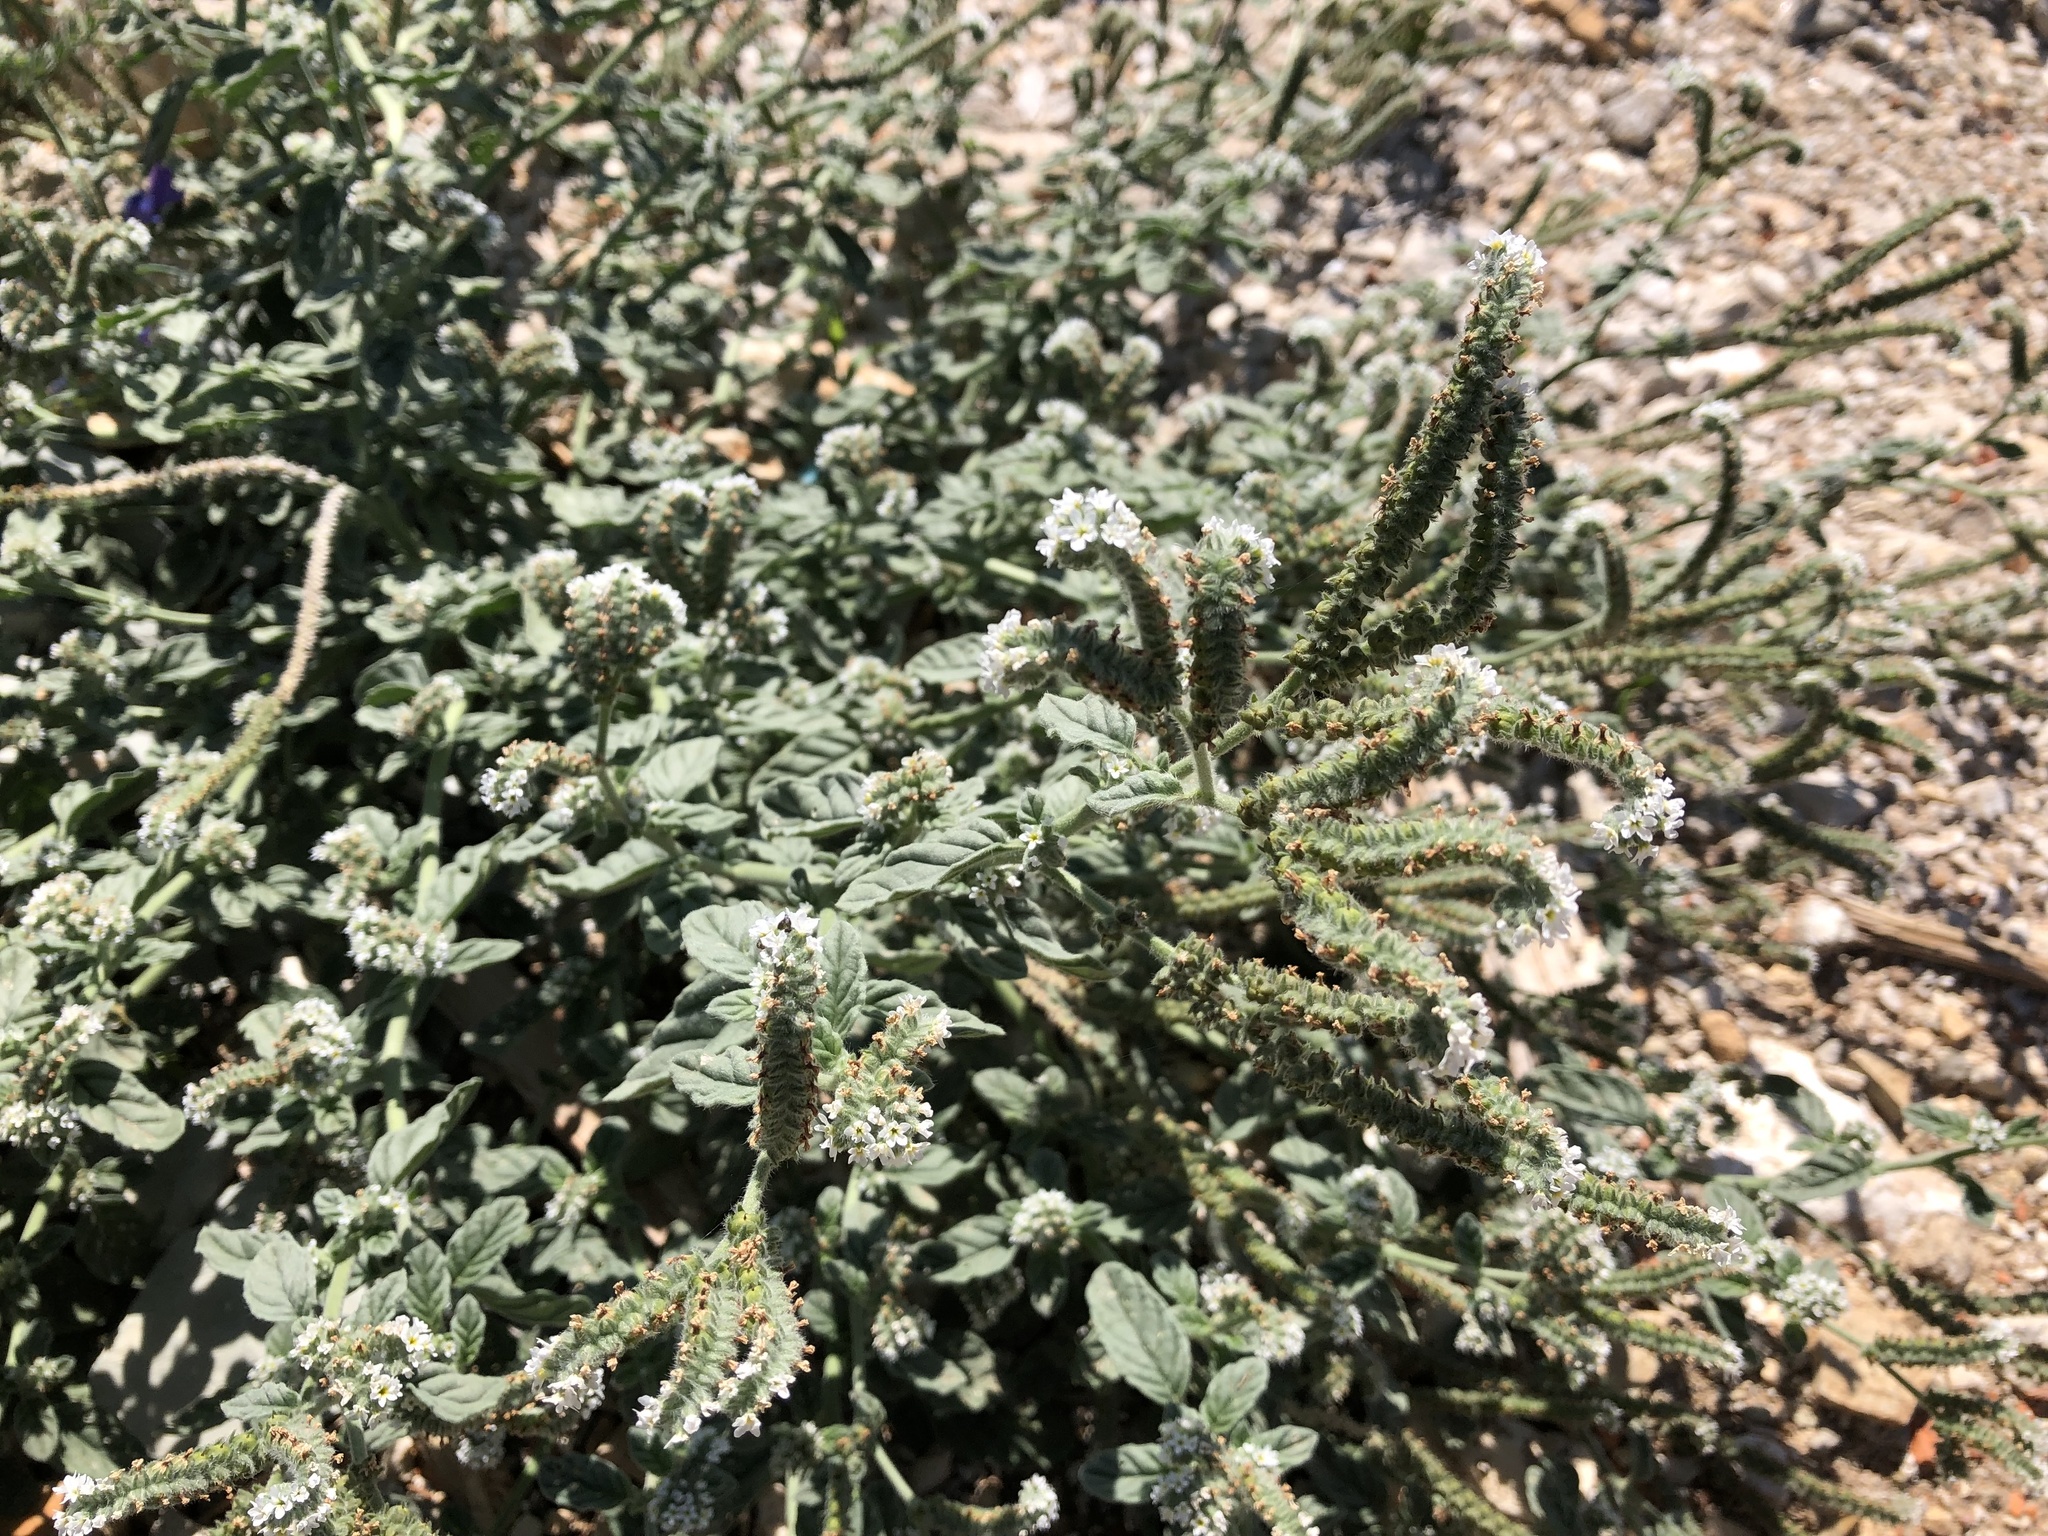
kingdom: Plantae
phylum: Tracheophyta
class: Magnoliopsida
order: Boraginales
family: Heliotropiaceae
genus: Heliotropium
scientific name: Heliotropium europaeum
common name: European heliotrope
